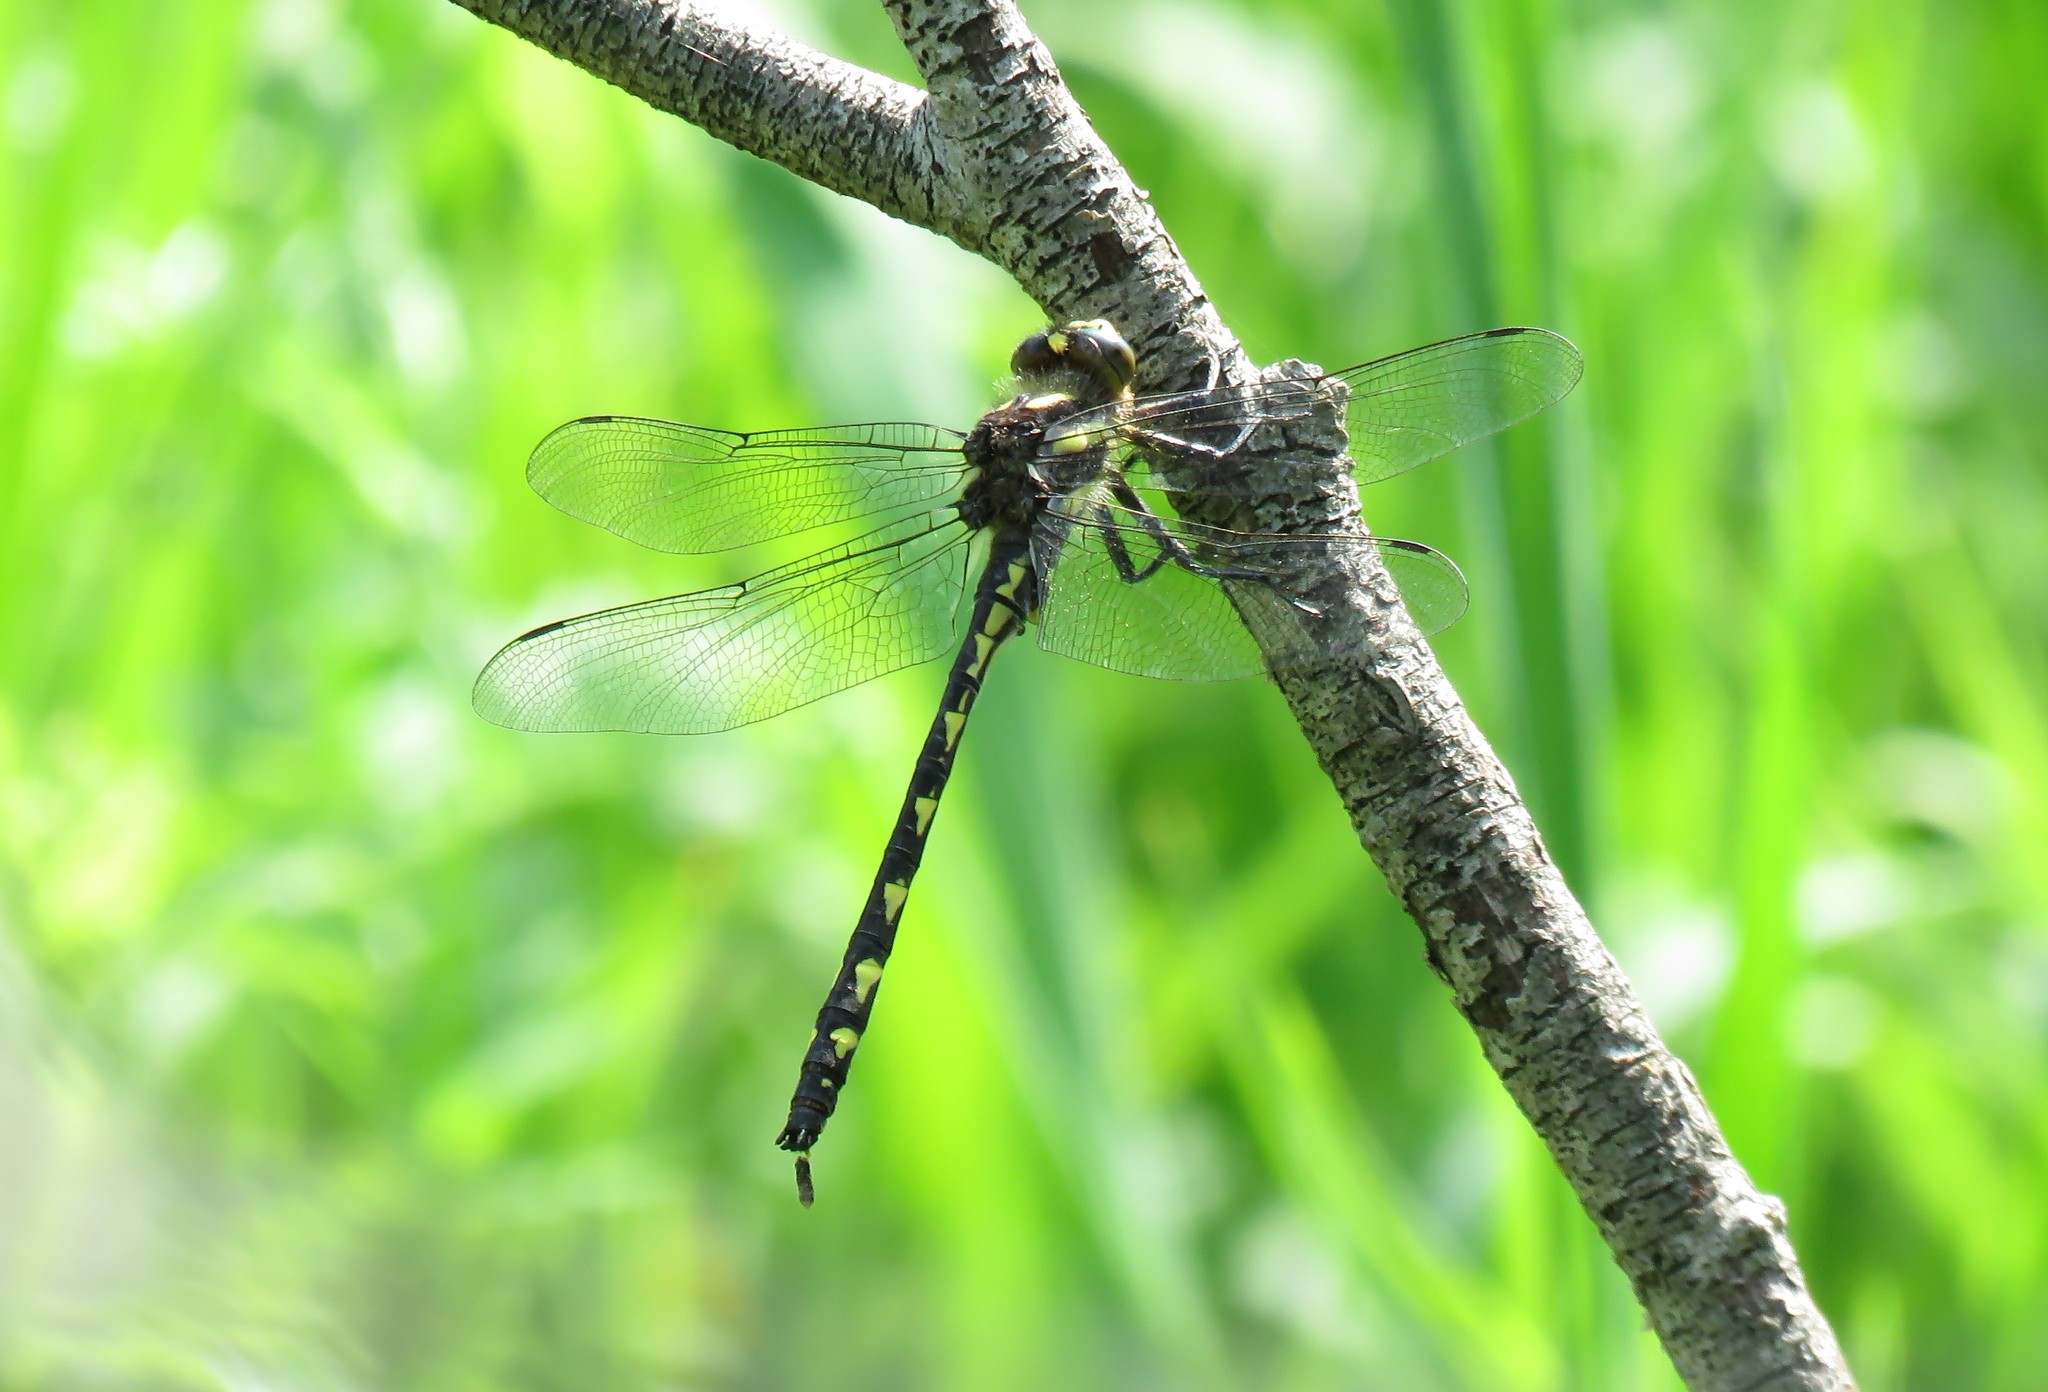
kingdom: Animalia
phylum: Arthropoda
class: Insecta
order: Odonata
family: Cordulegastridae
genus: Cordulegaster
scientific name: Cordulegaster diastatops
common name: Delta-spotted spiketail
